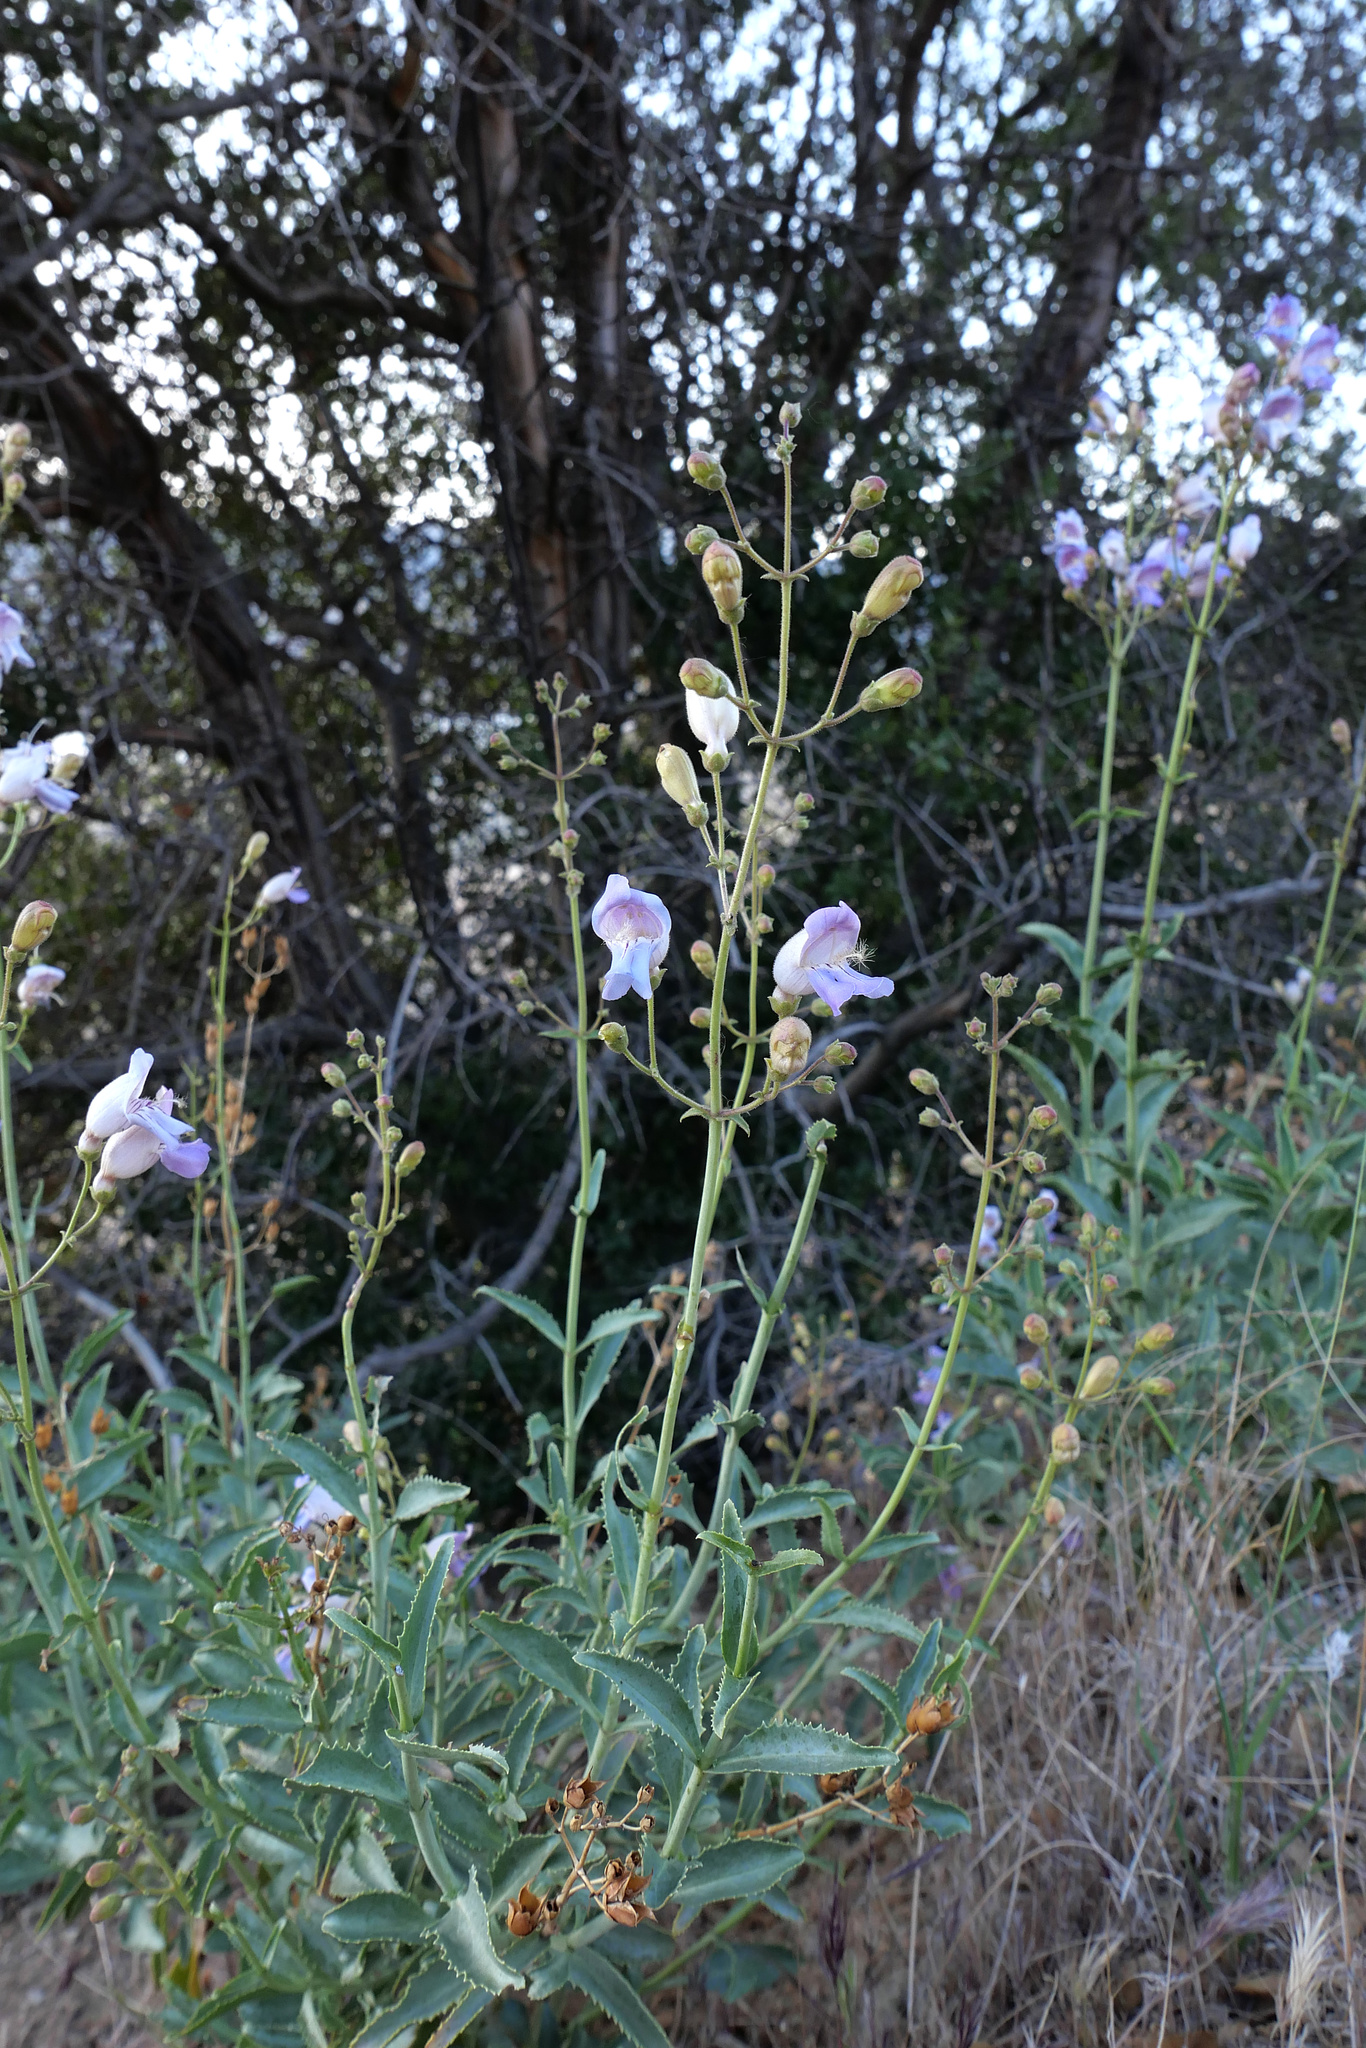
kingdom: Plantae
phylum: Tracheophyta
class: Magnoliopsida
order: Lamiales
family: Plantaginaceae
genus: Penstemon
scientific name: Penstemon grinnellii
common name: Grinnell's beardtongue
